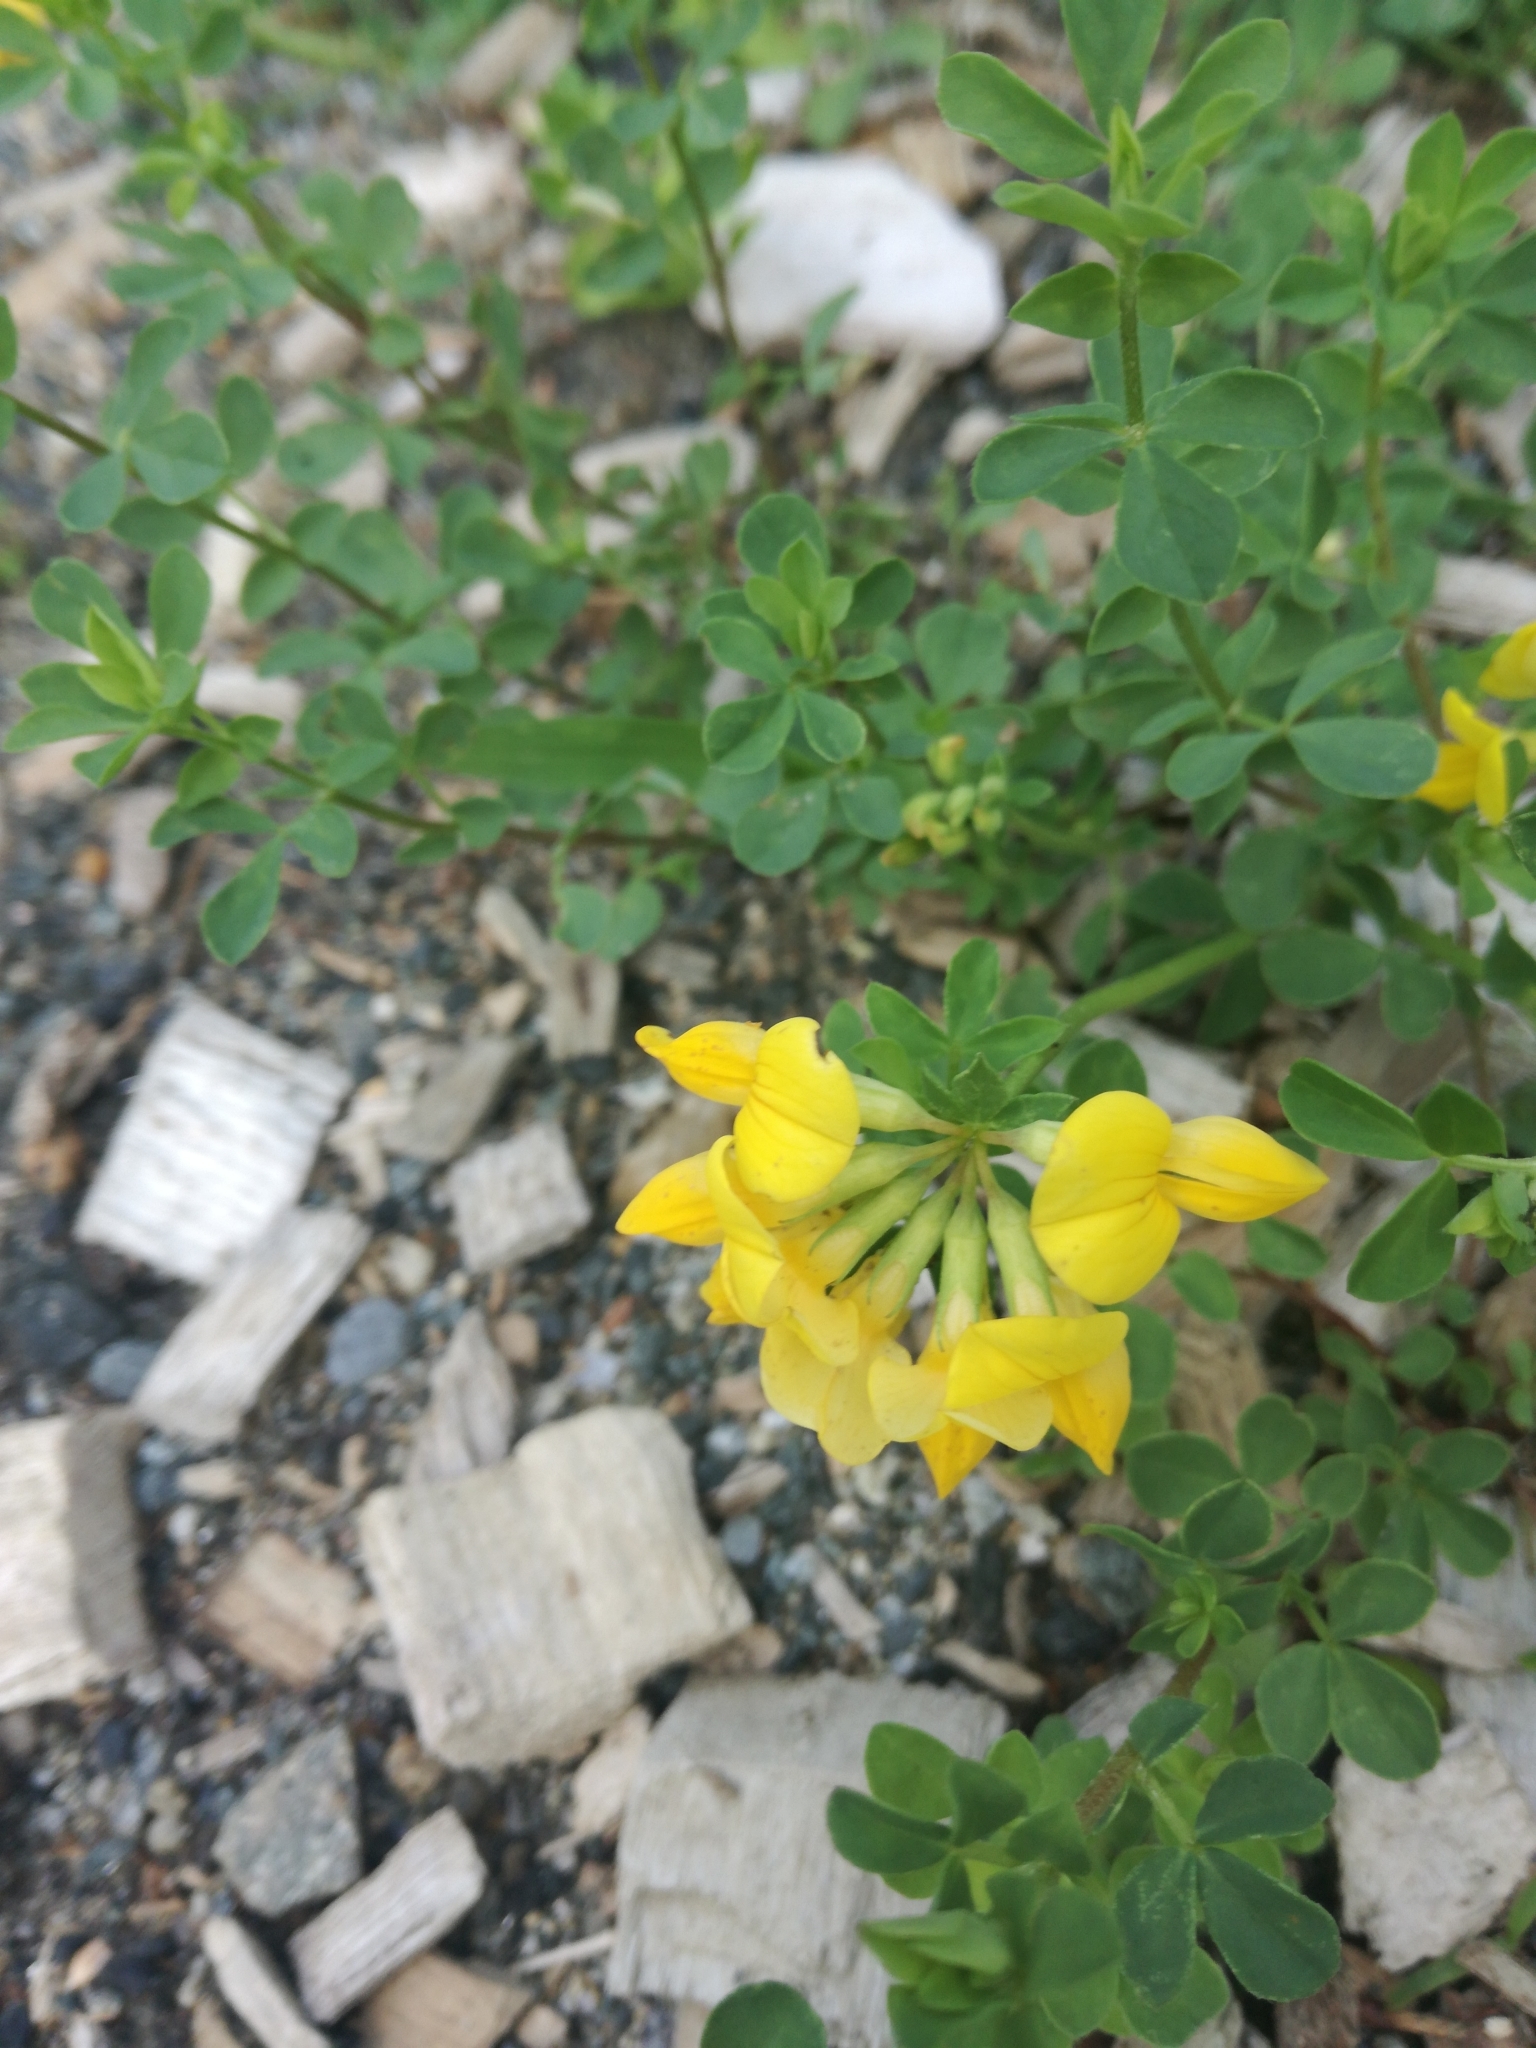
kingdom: Plantae
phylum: Tracheophyta
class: Magnoliopsida
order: Fabales
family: Fabaceae
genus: Lotus
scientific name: Lotus corniculatus
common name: Common bird's-foot-trefoil
